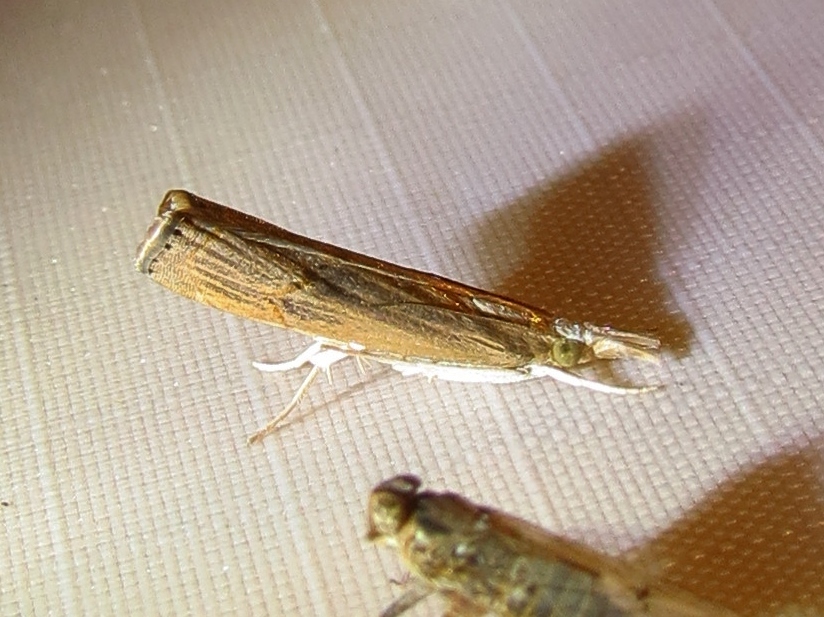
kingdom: Animalia
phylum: Arthropoda
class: Insecta
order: Lepidoptera
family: Crambidae
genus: Parapediasia
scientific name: Parapediasia teterellus
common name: Bluegrass webworm moth
